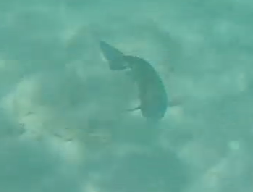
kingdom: Animalia
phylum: Chordata
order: Perciformes
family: Acanthuridae
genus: Acanthurus
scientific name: Acanthurus bahianus
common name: Ocean surgeon
